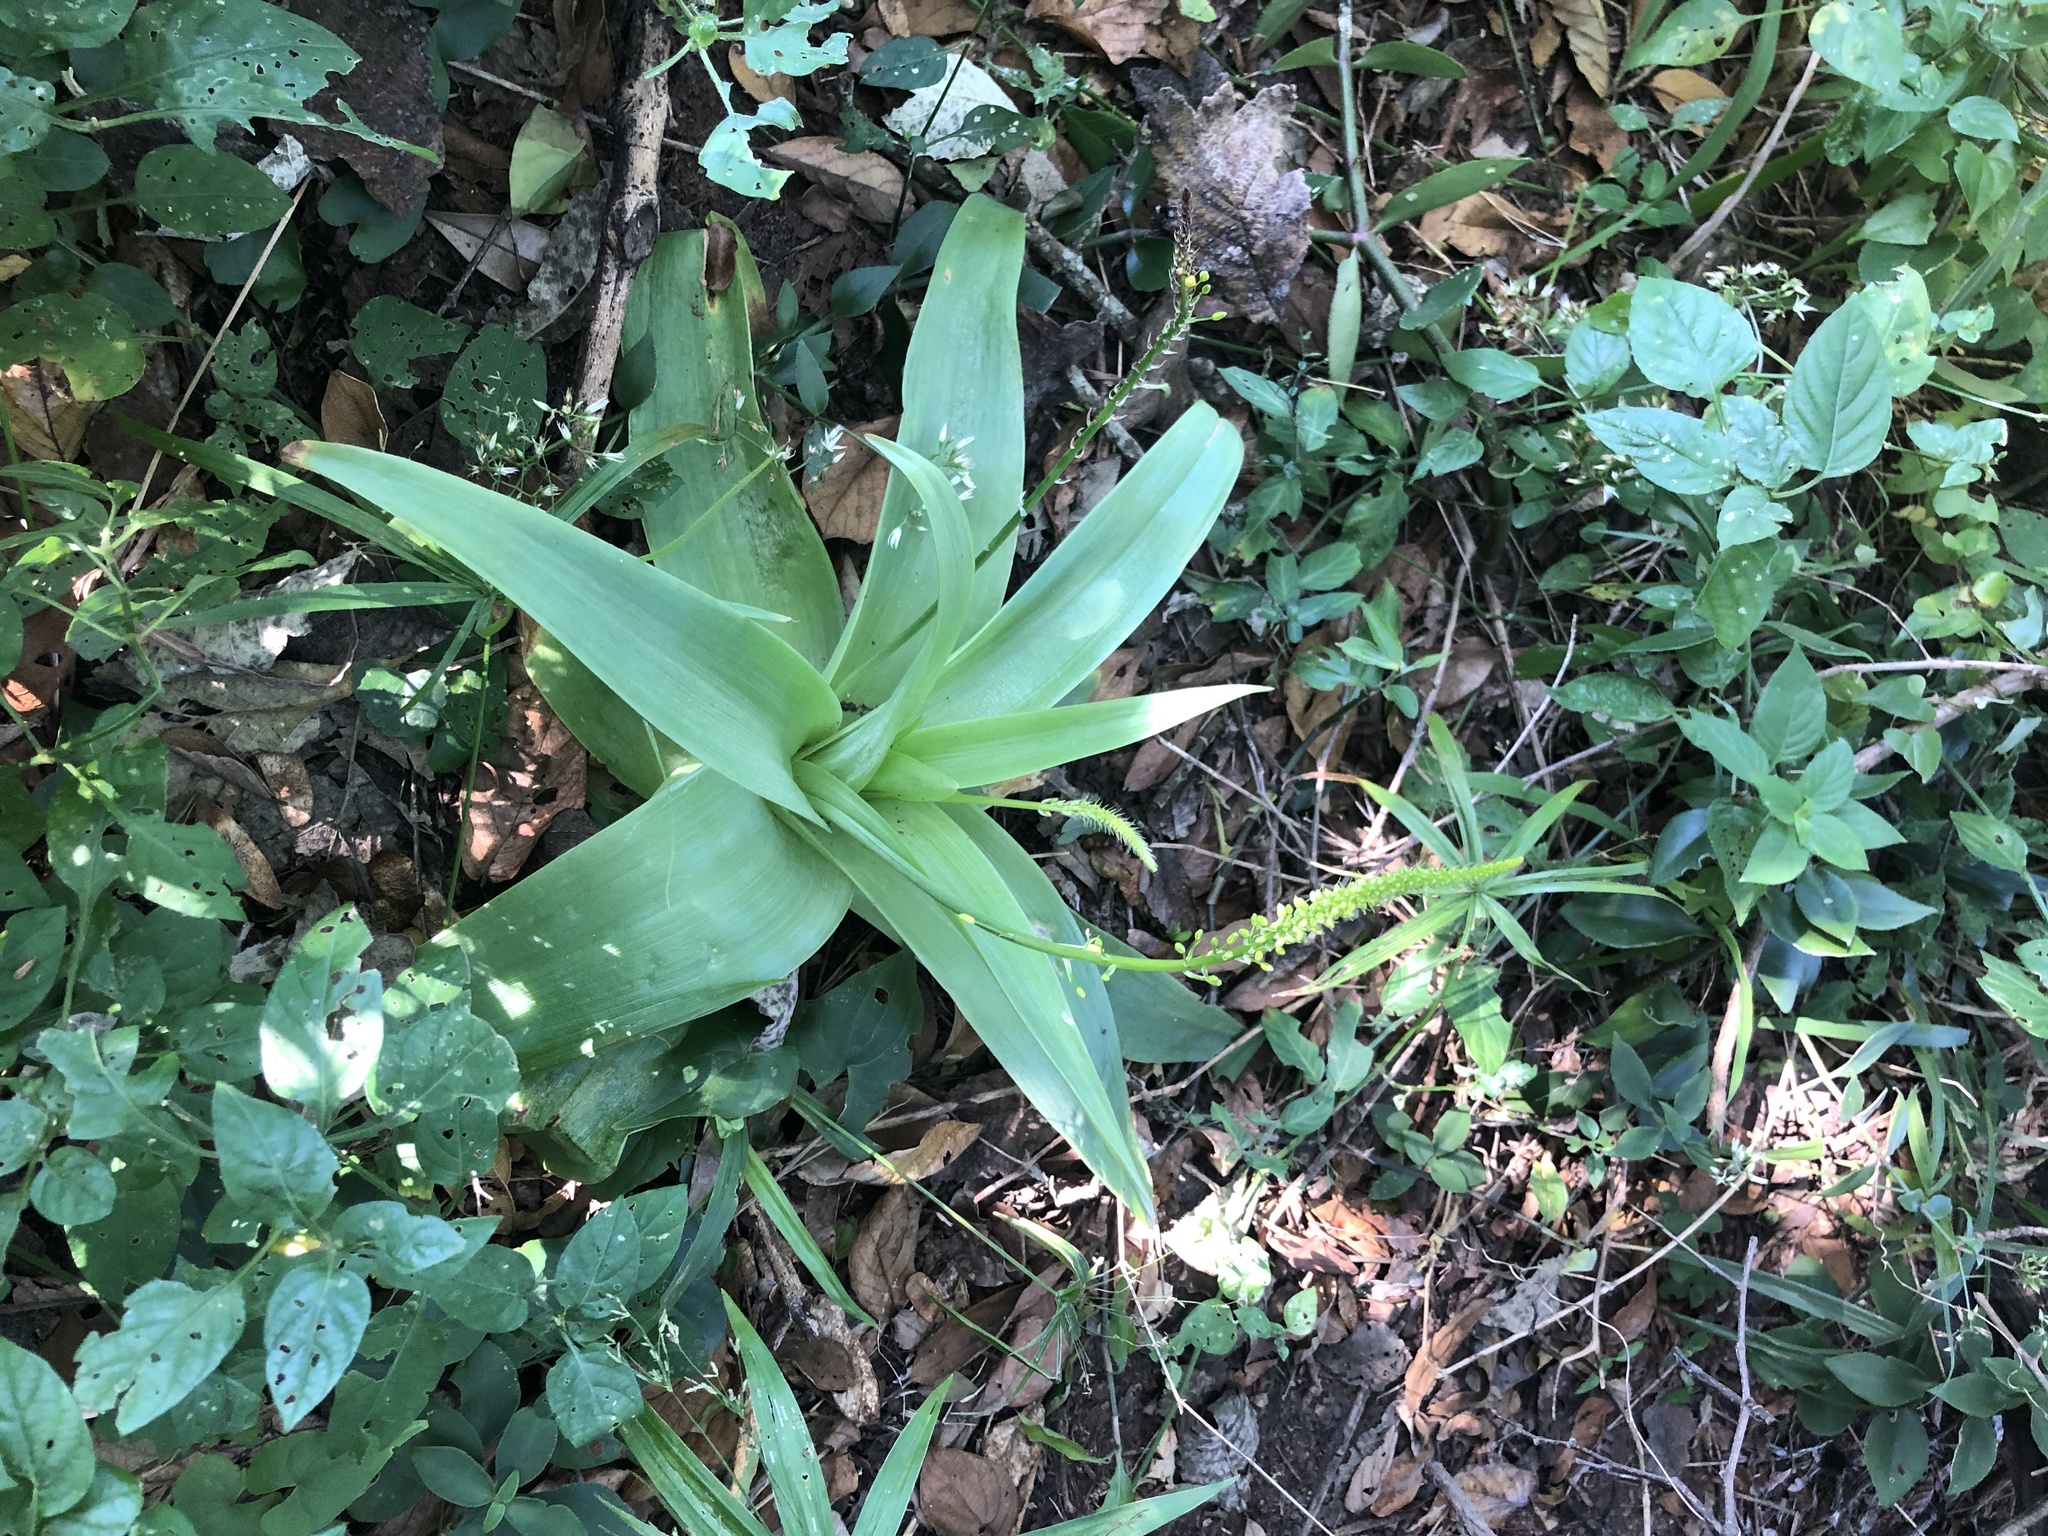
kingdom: Plantae
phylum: Tracheophyta
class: Liliopsida
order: Asparagales
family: Asphodelaceae
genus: Bulbine
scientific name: Bulbine latifolia
